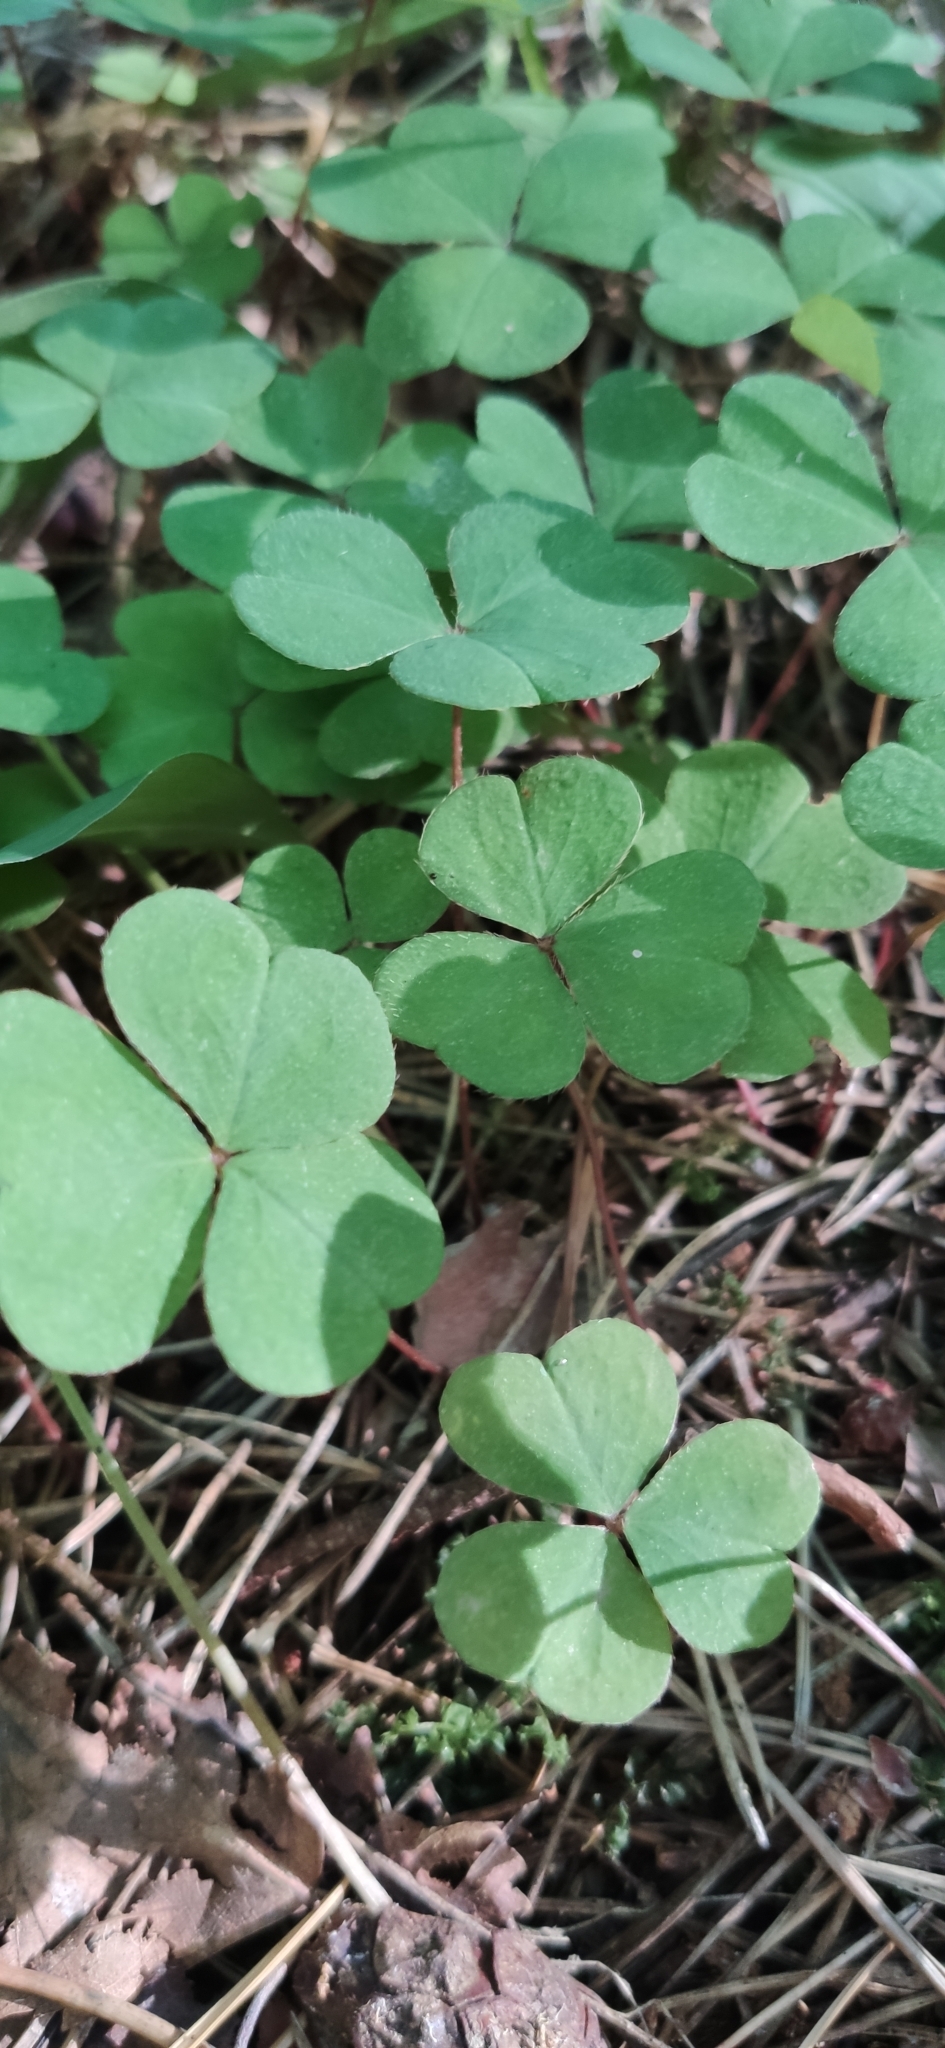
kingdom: Plantae
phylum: Tracheophyta
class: Magnoliopsida
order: Oxalidales
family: Oxalidaceae
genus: Oxalis
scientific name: Oxalis acetosella
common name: Wood-sorrel
